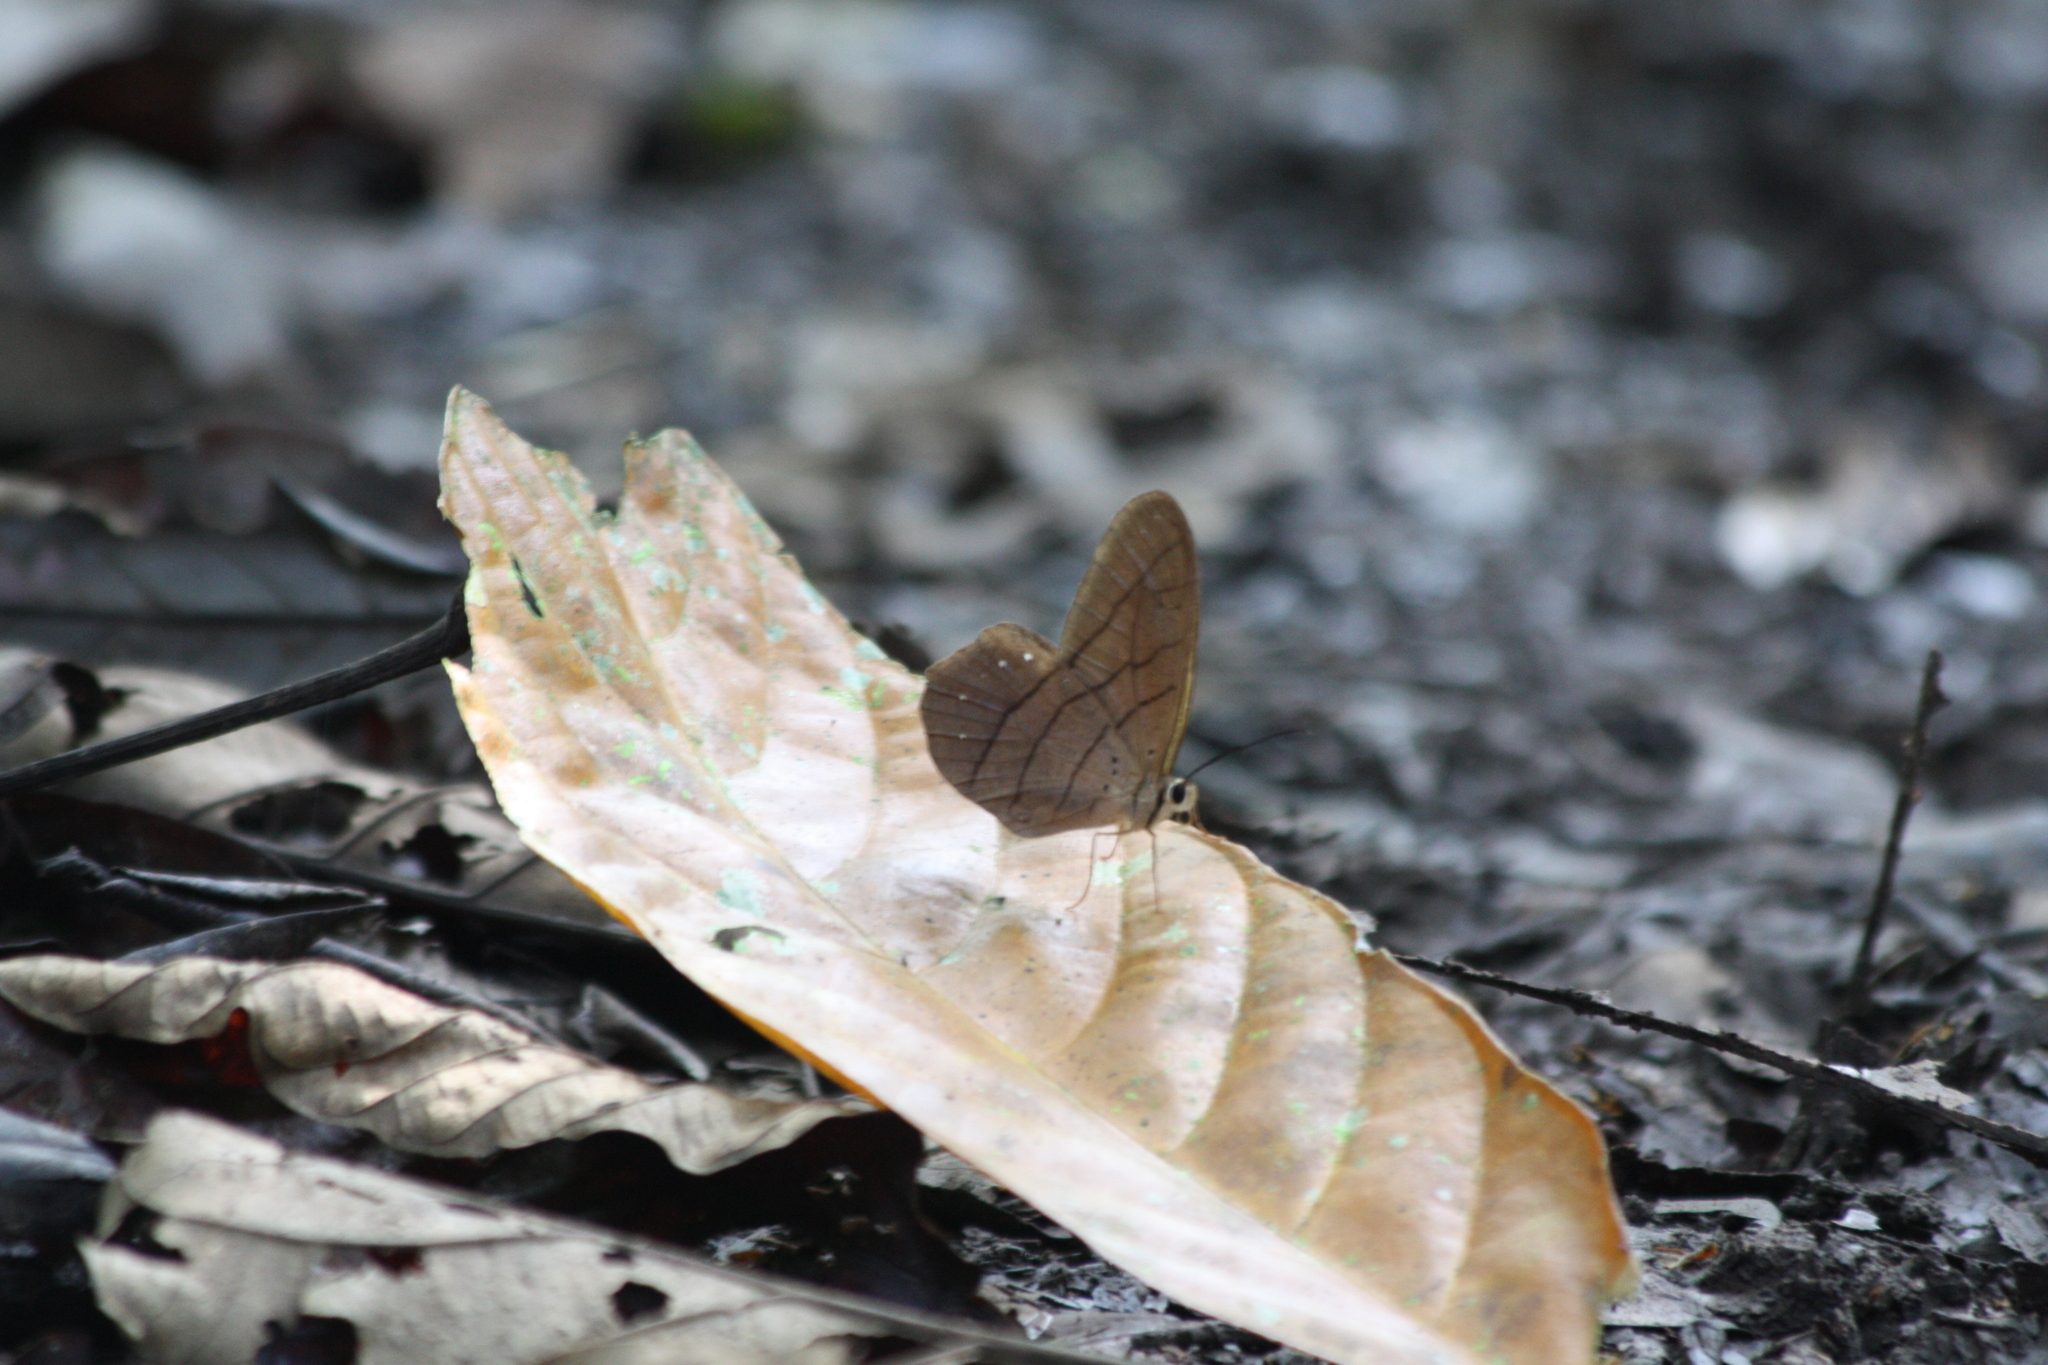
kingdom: Animalia
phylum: Arthropoda
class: Insecta
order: Lepidoptera
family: Nymphalidae
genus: Pierella
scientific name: Pierella rhea
